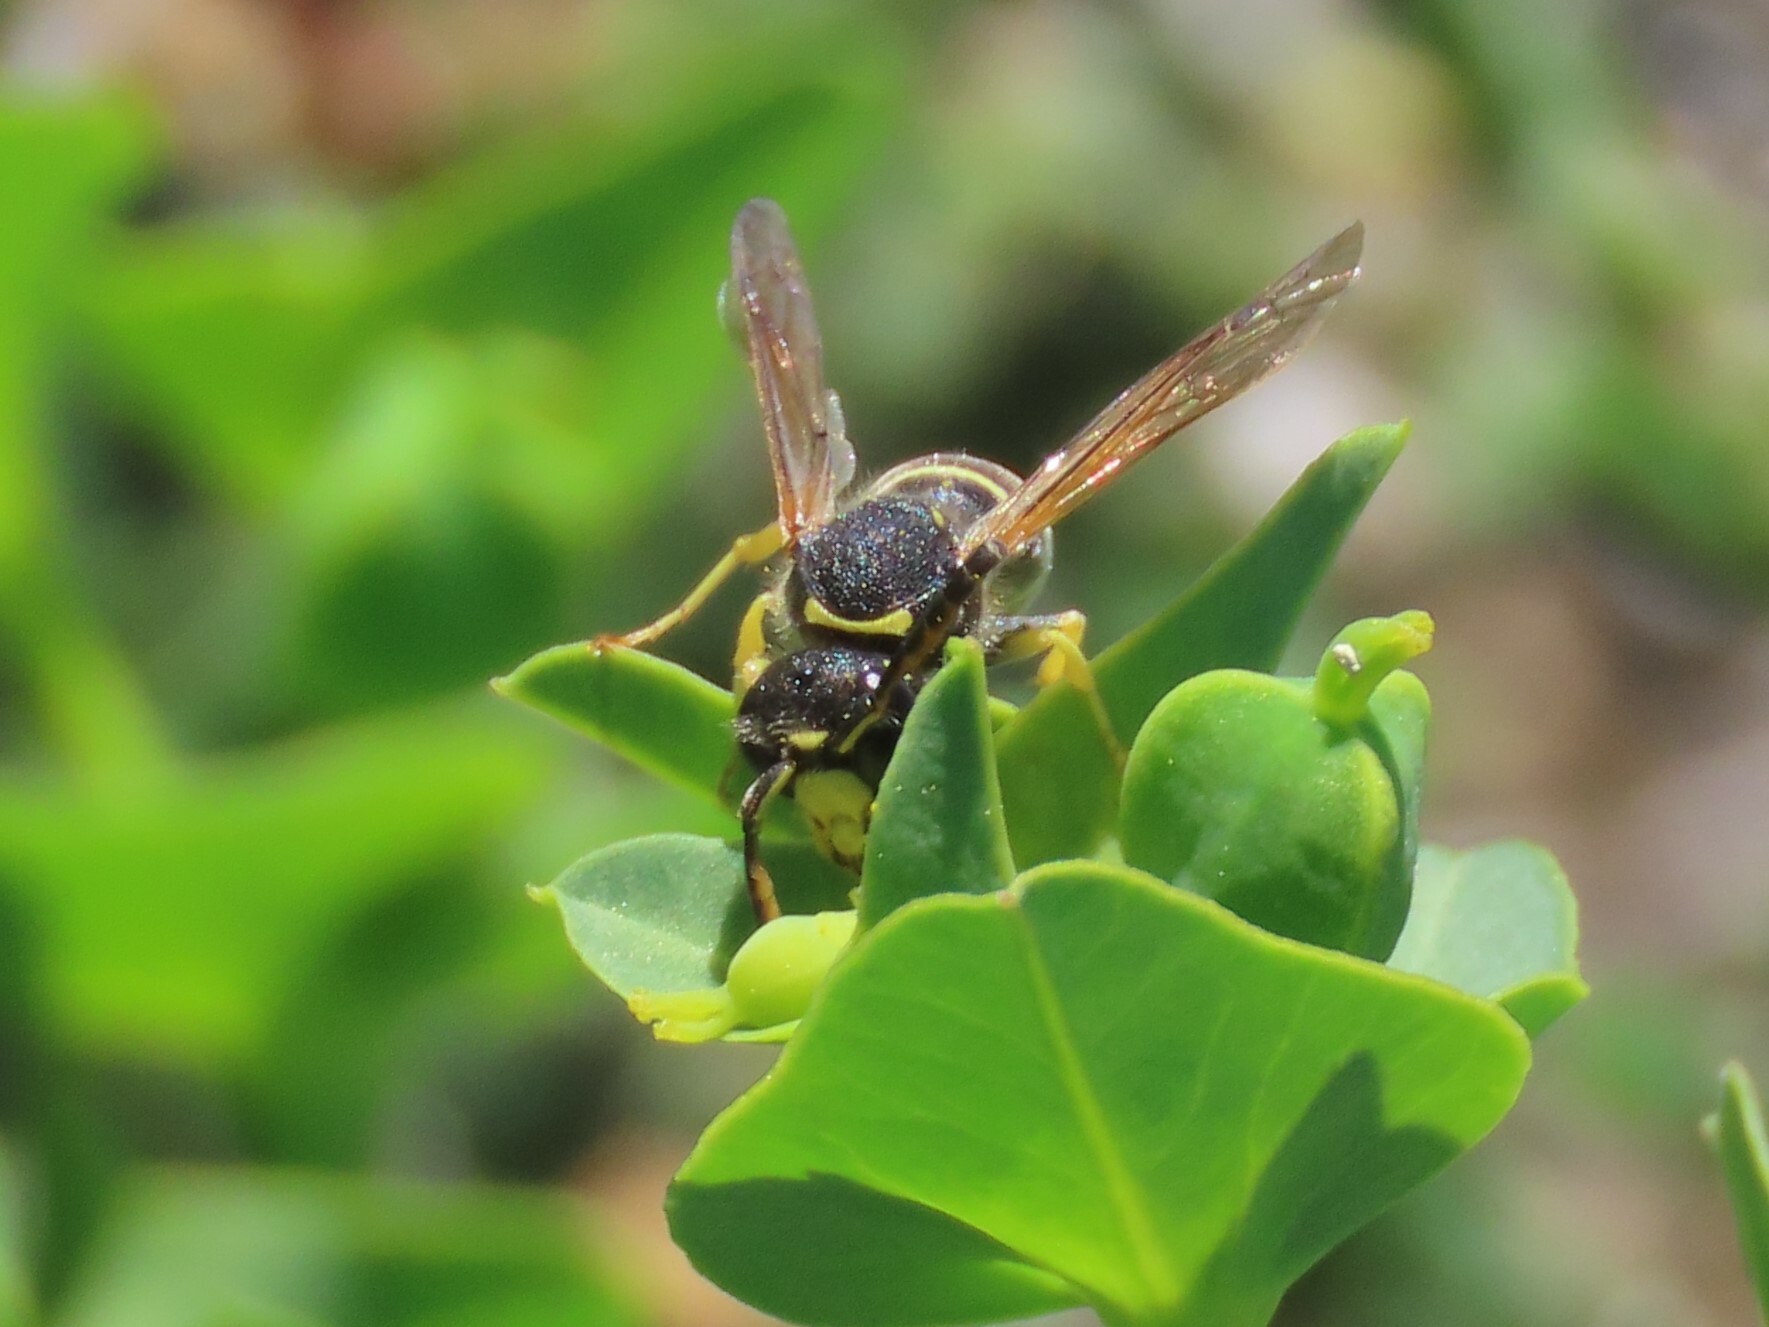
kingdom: Animalia
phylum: Arthropoda
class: Insecta
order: Hymenoptera
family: Vespidae
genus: Odynerus
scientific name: Odynerus dusmeticus
